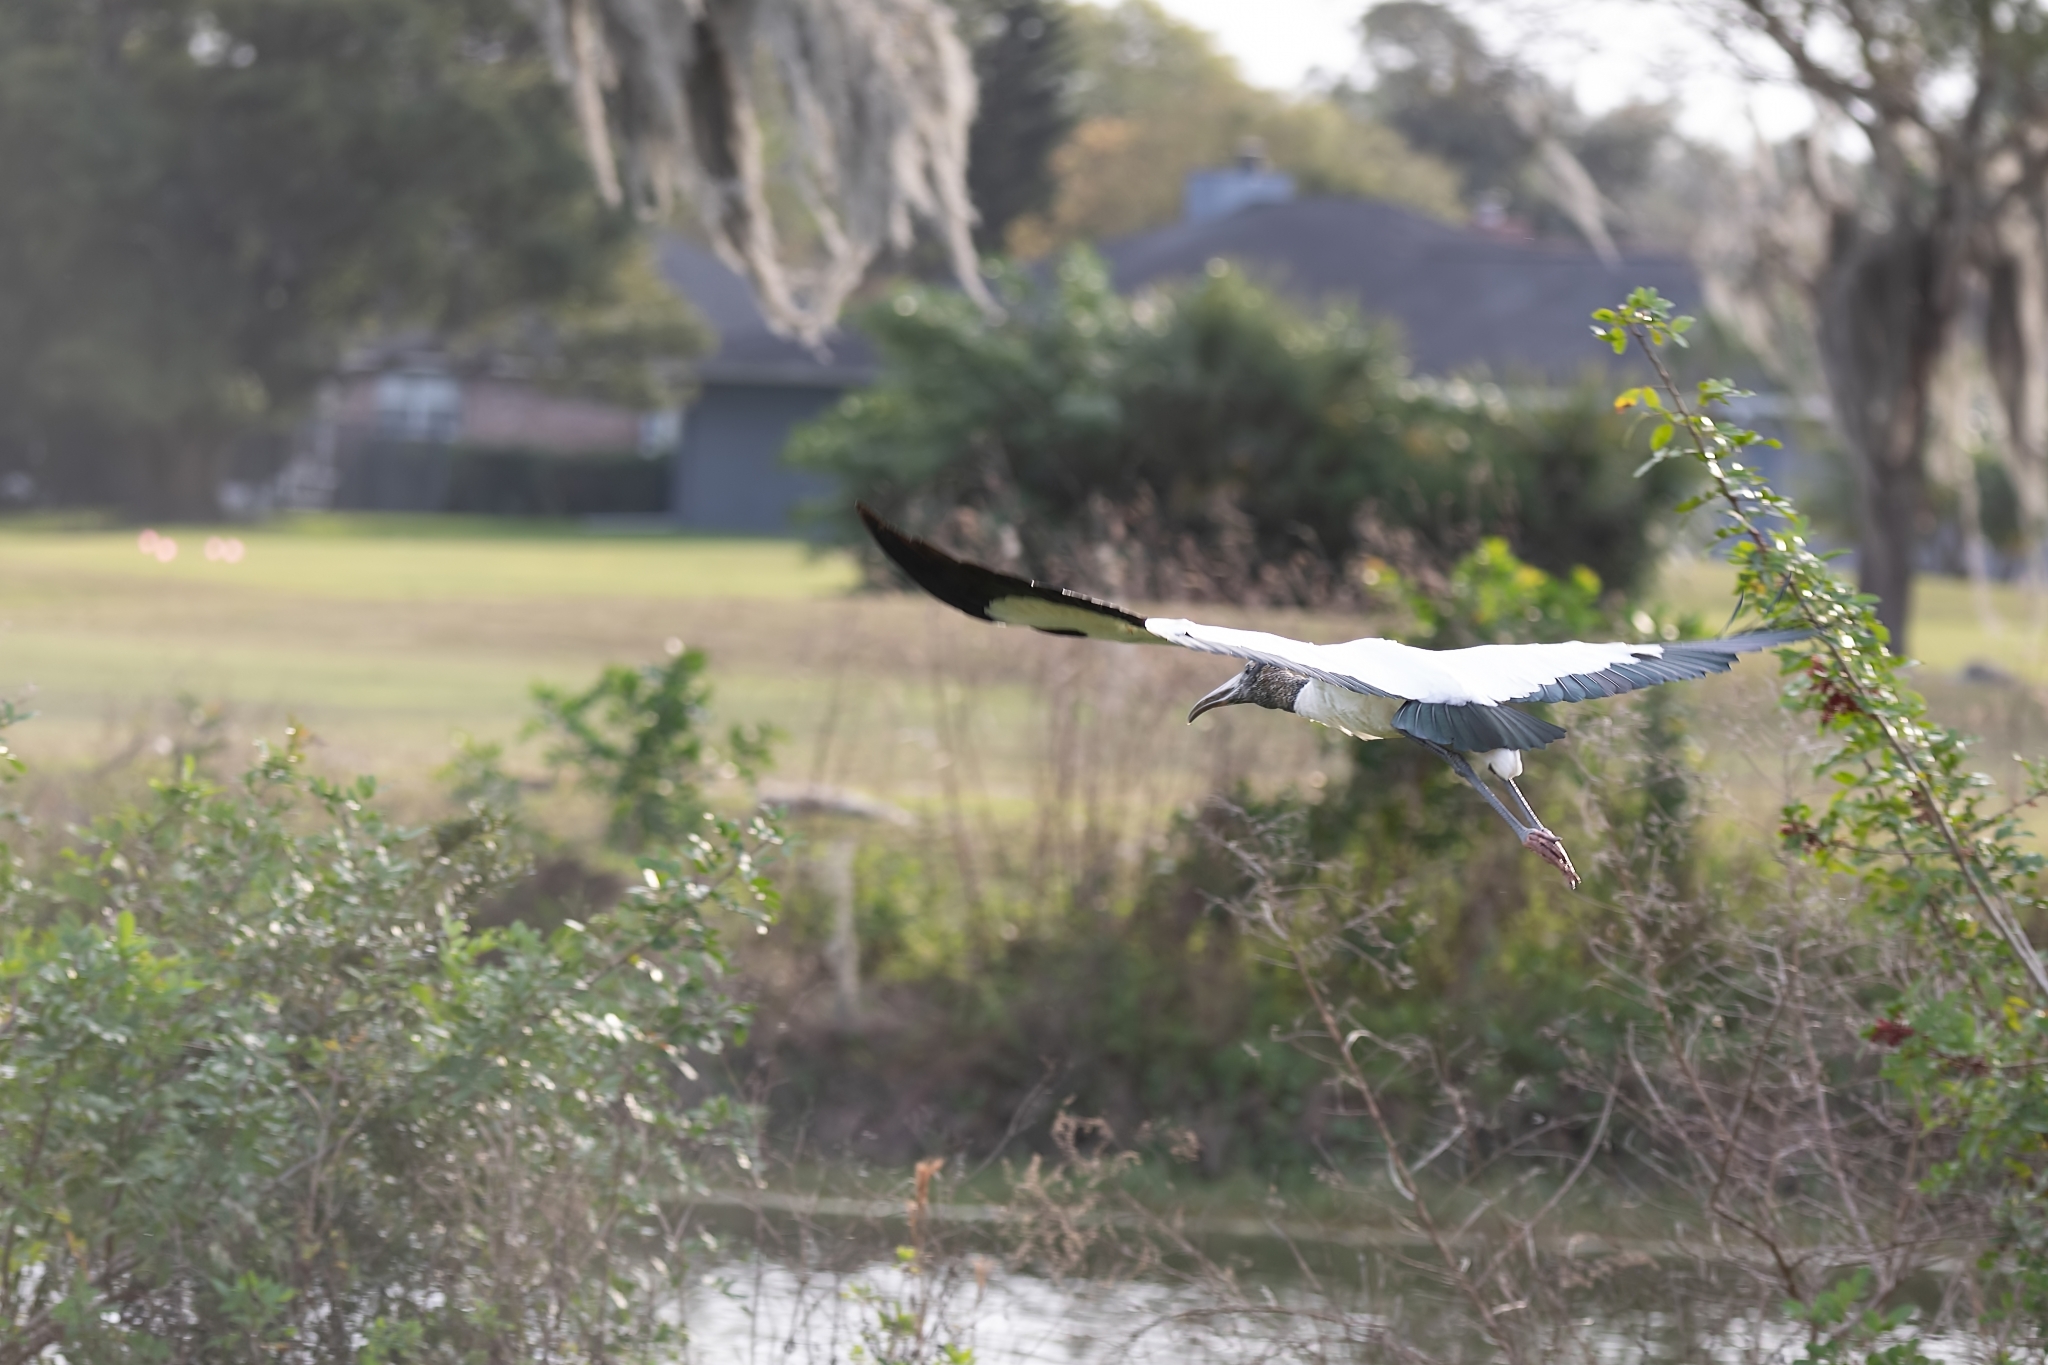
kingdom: Animalia
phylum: Chordata
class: Aves
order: Ciconiiformes
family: Ciconiidae
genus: Mycteria
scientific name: Mycteria americana
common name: Wood stork
